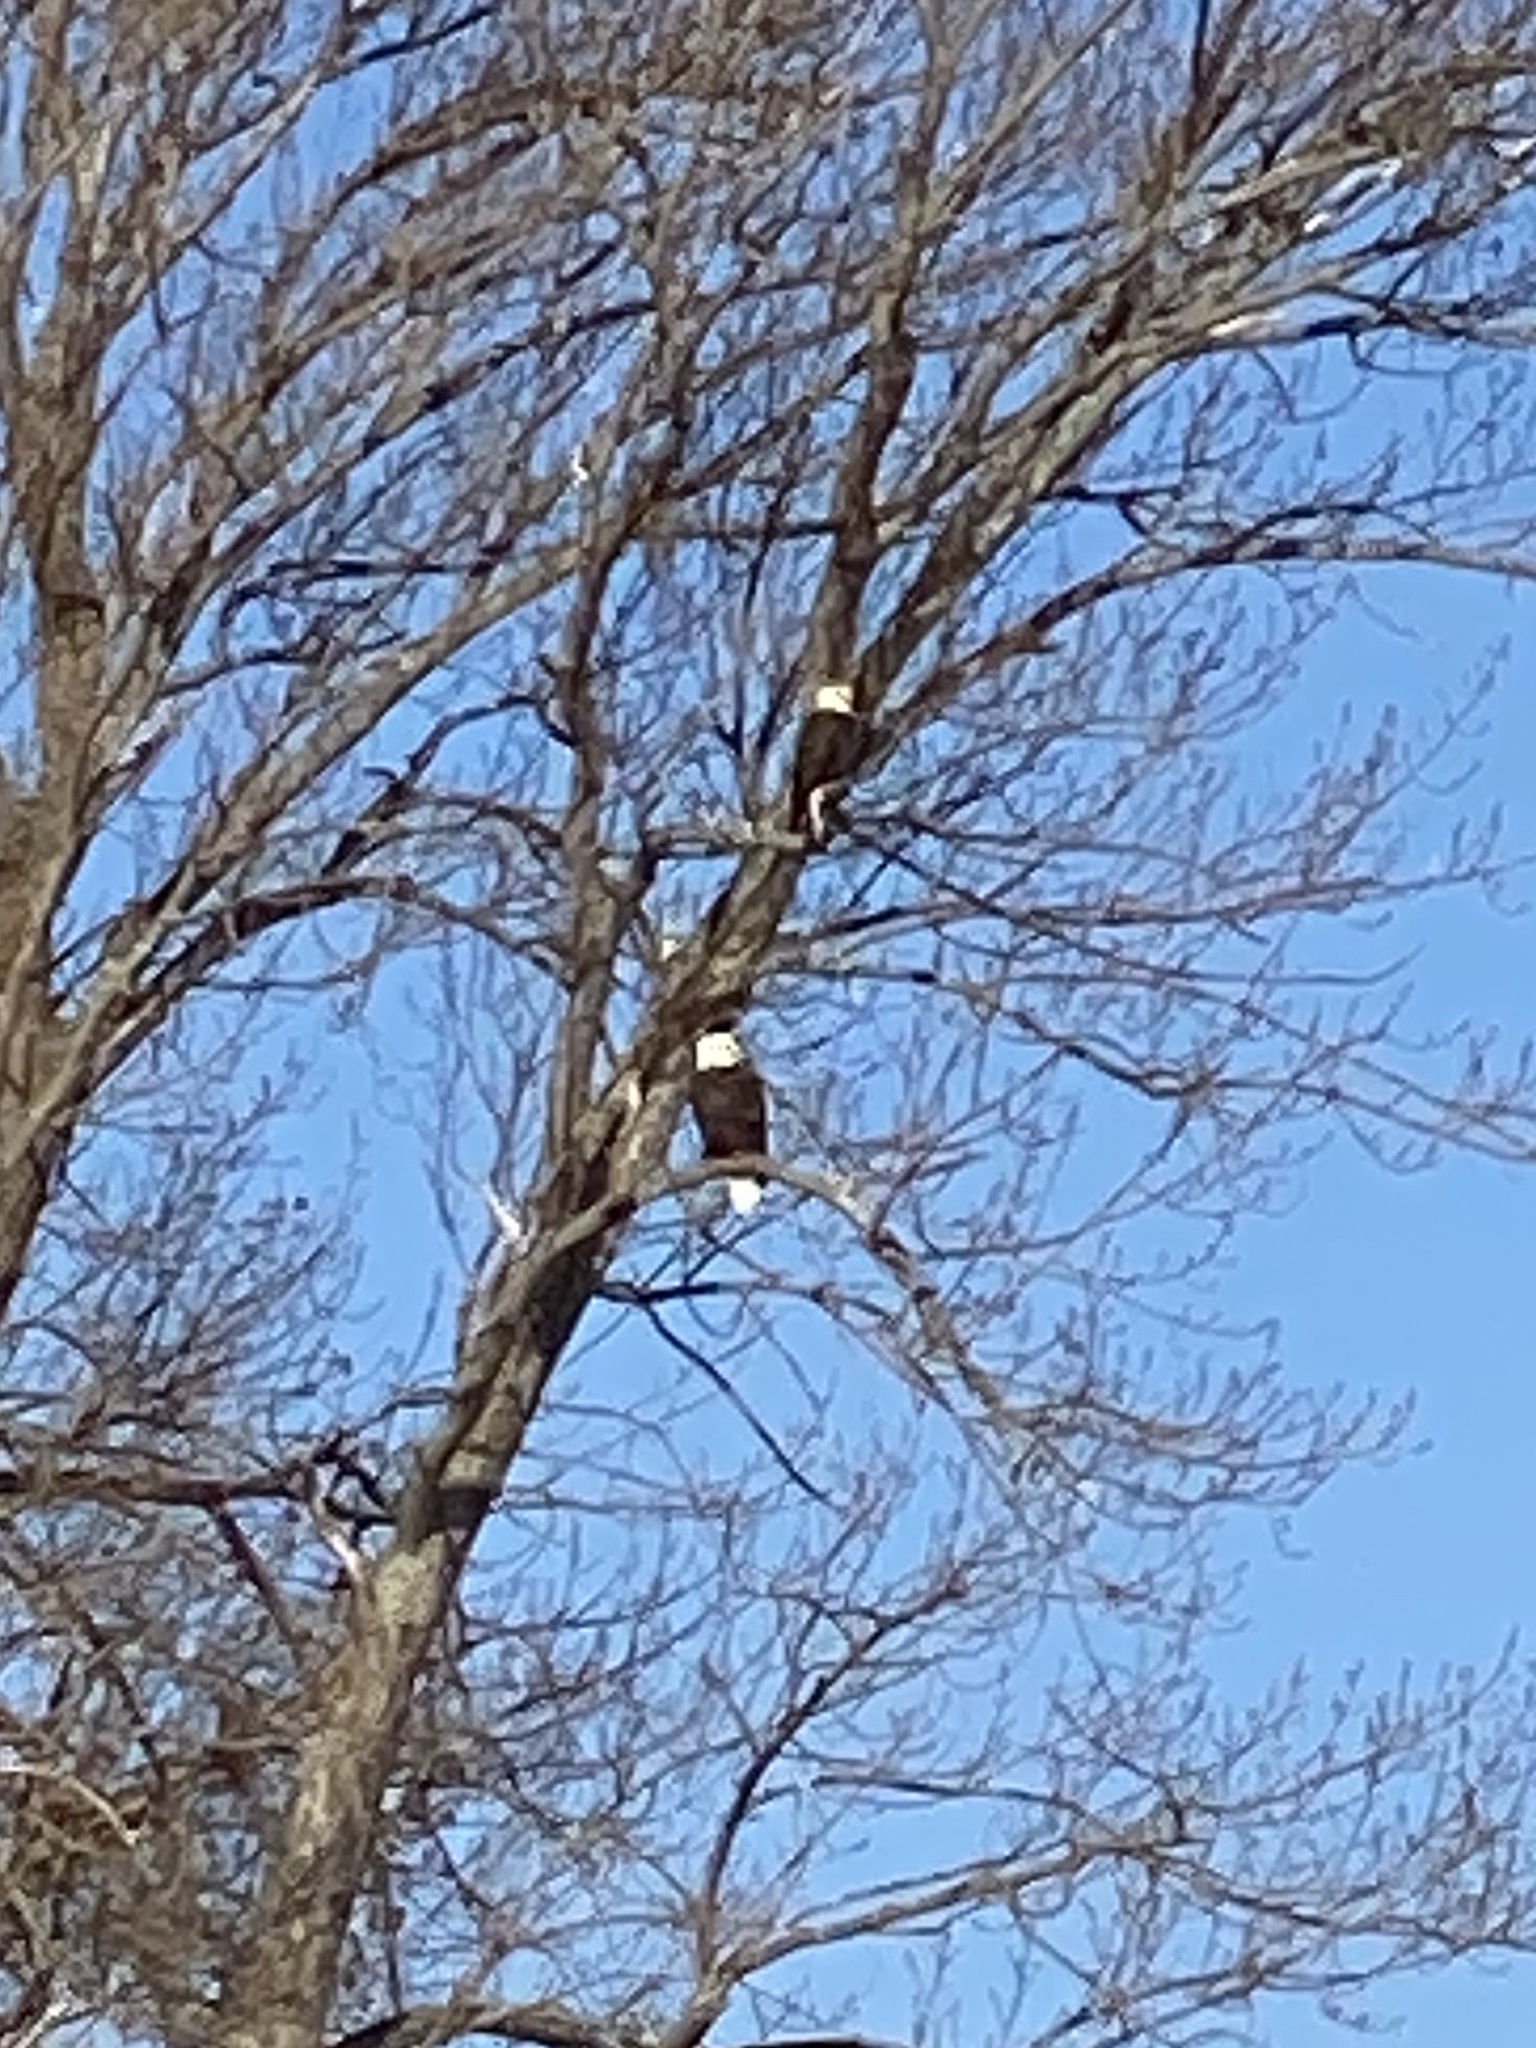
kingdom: Animalia
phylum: Chordata
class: Aves
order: Accipitriformes
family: Accipitridae
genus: Haliaeetus
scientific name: Haliaeetus leucocephalus
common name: Bald eagle
